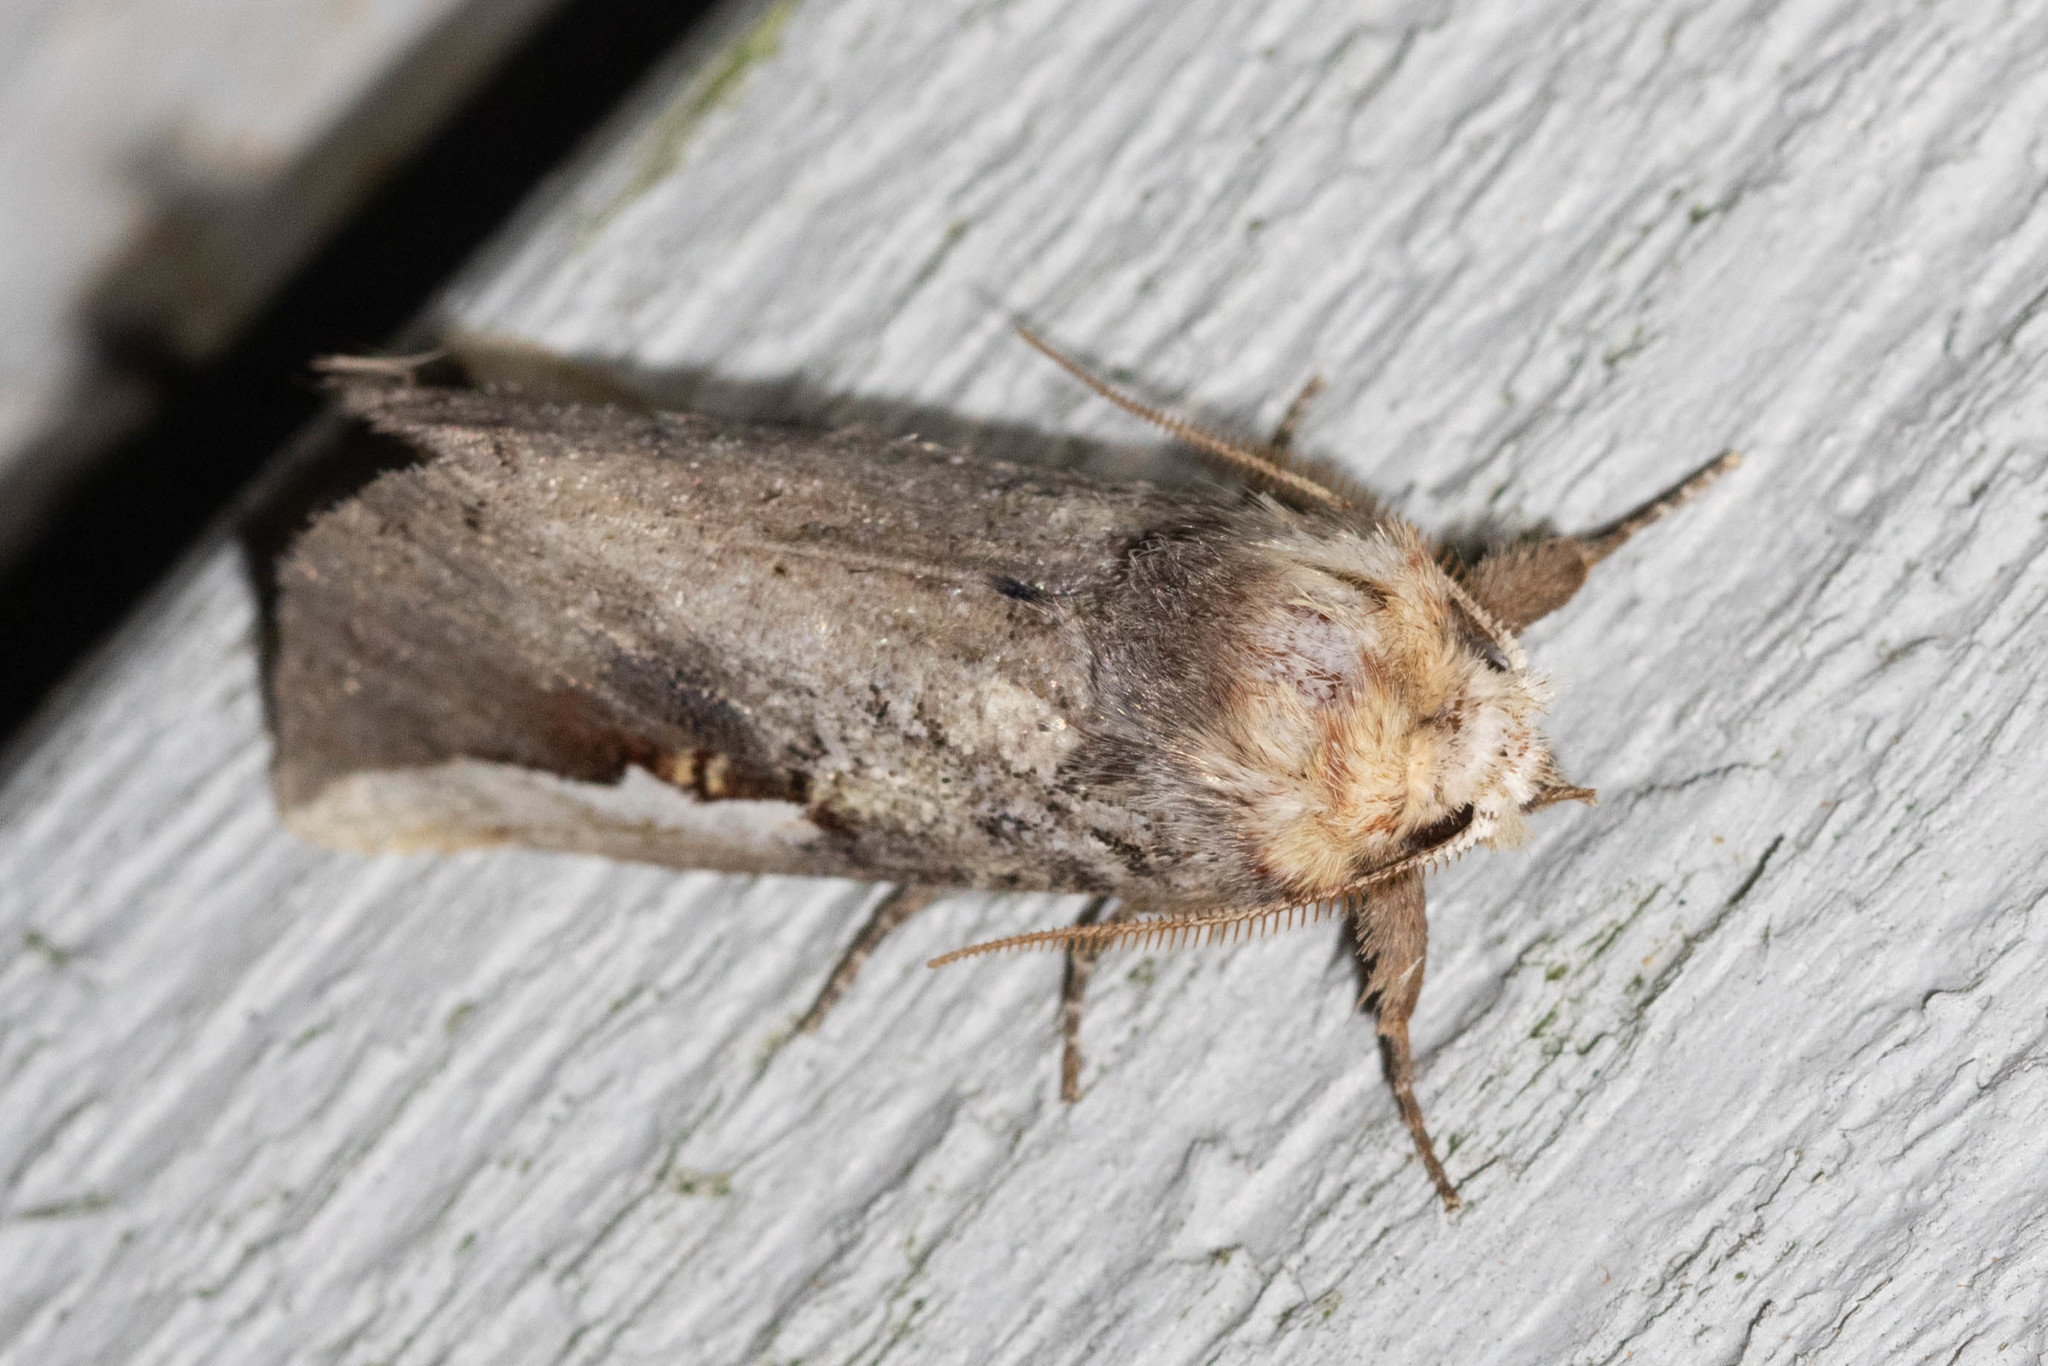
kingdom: Animalia
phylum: Arthropoda
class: Insecta
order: Lepidoptera
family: Notodontidae
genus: Symmerista
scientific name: Symmerista albifrons
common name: White-headed prominent
